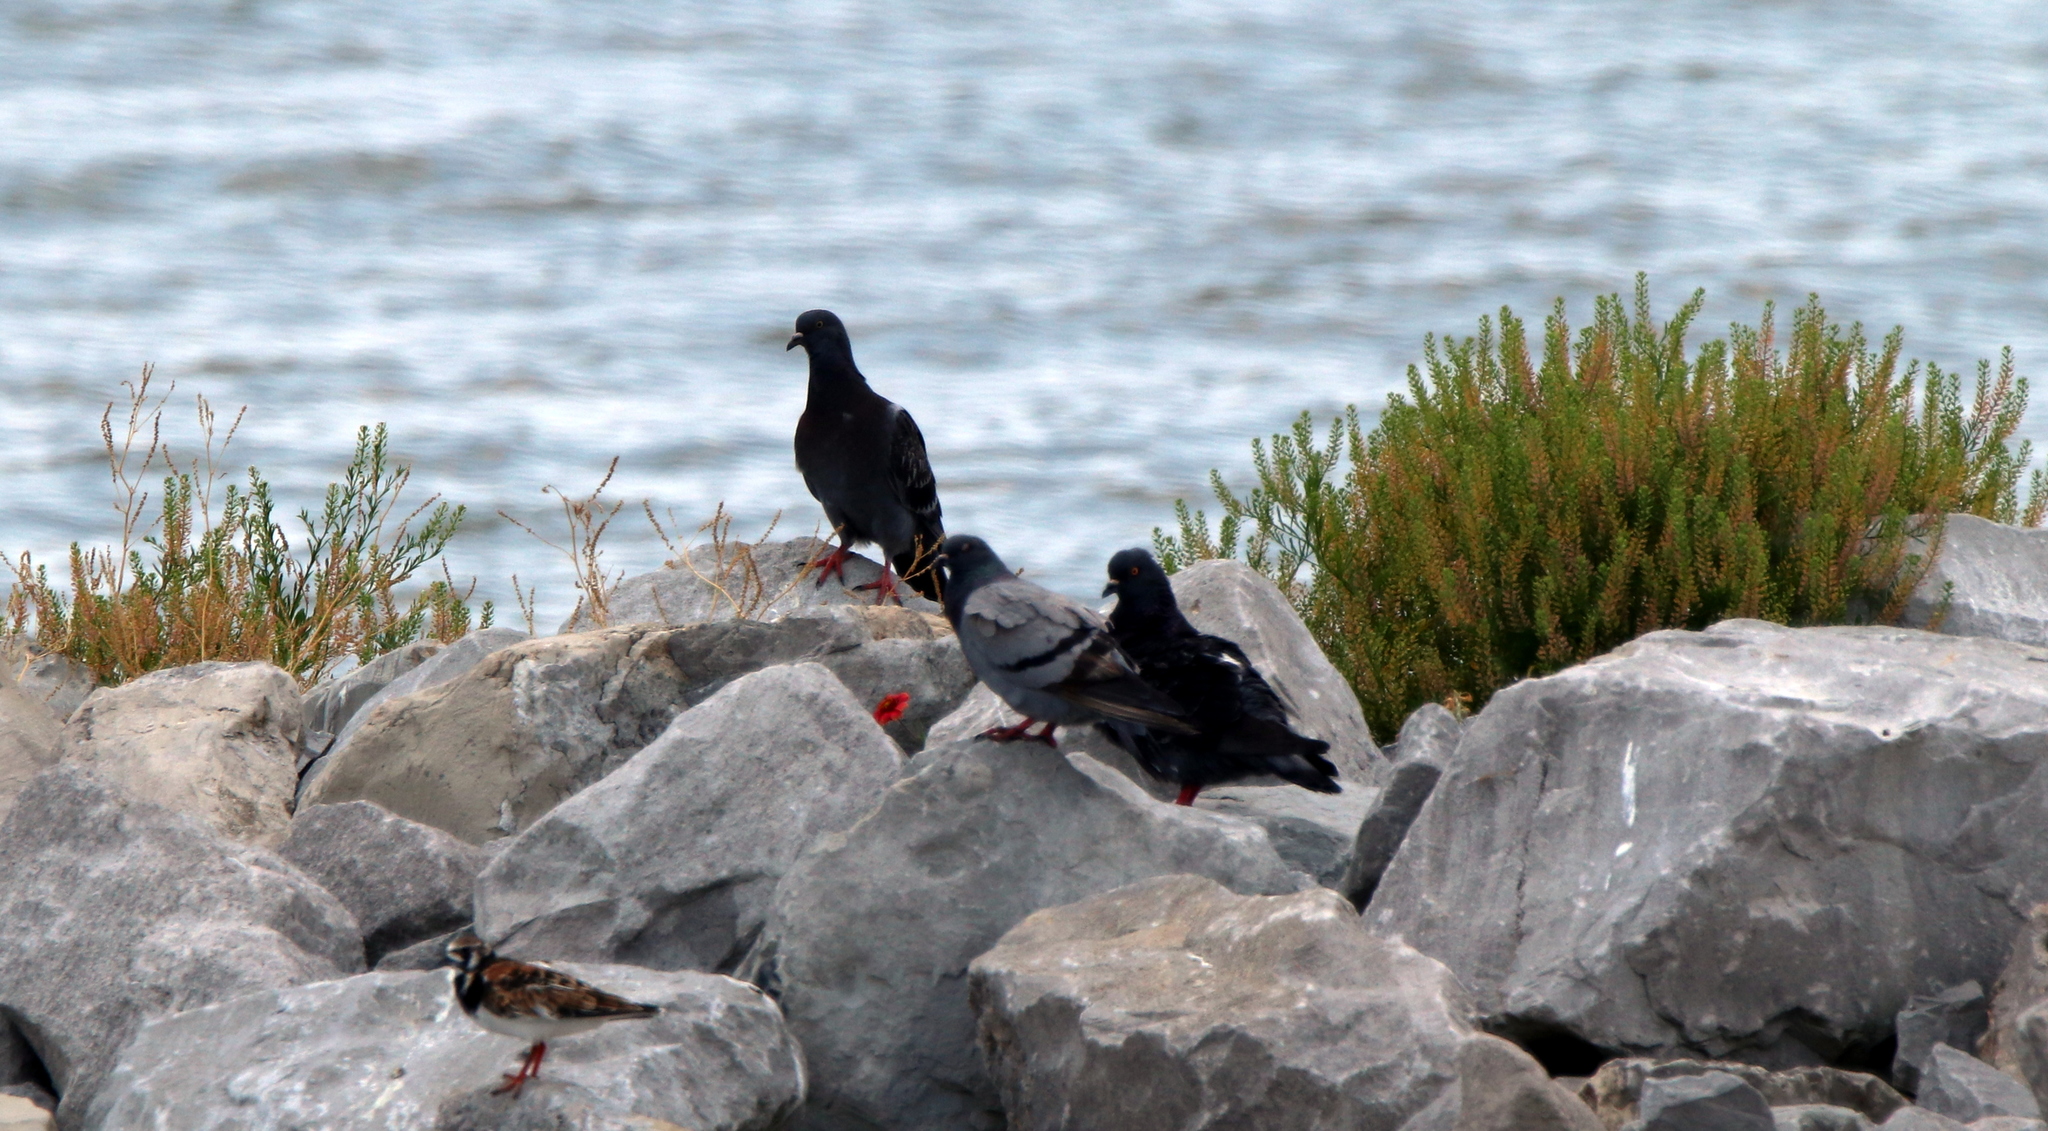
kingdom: Animalia
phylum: Chordata
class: Aves
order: Columbiformes
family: Columbidae
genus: Columba
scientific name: Columba livia
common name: Rock pigeon
